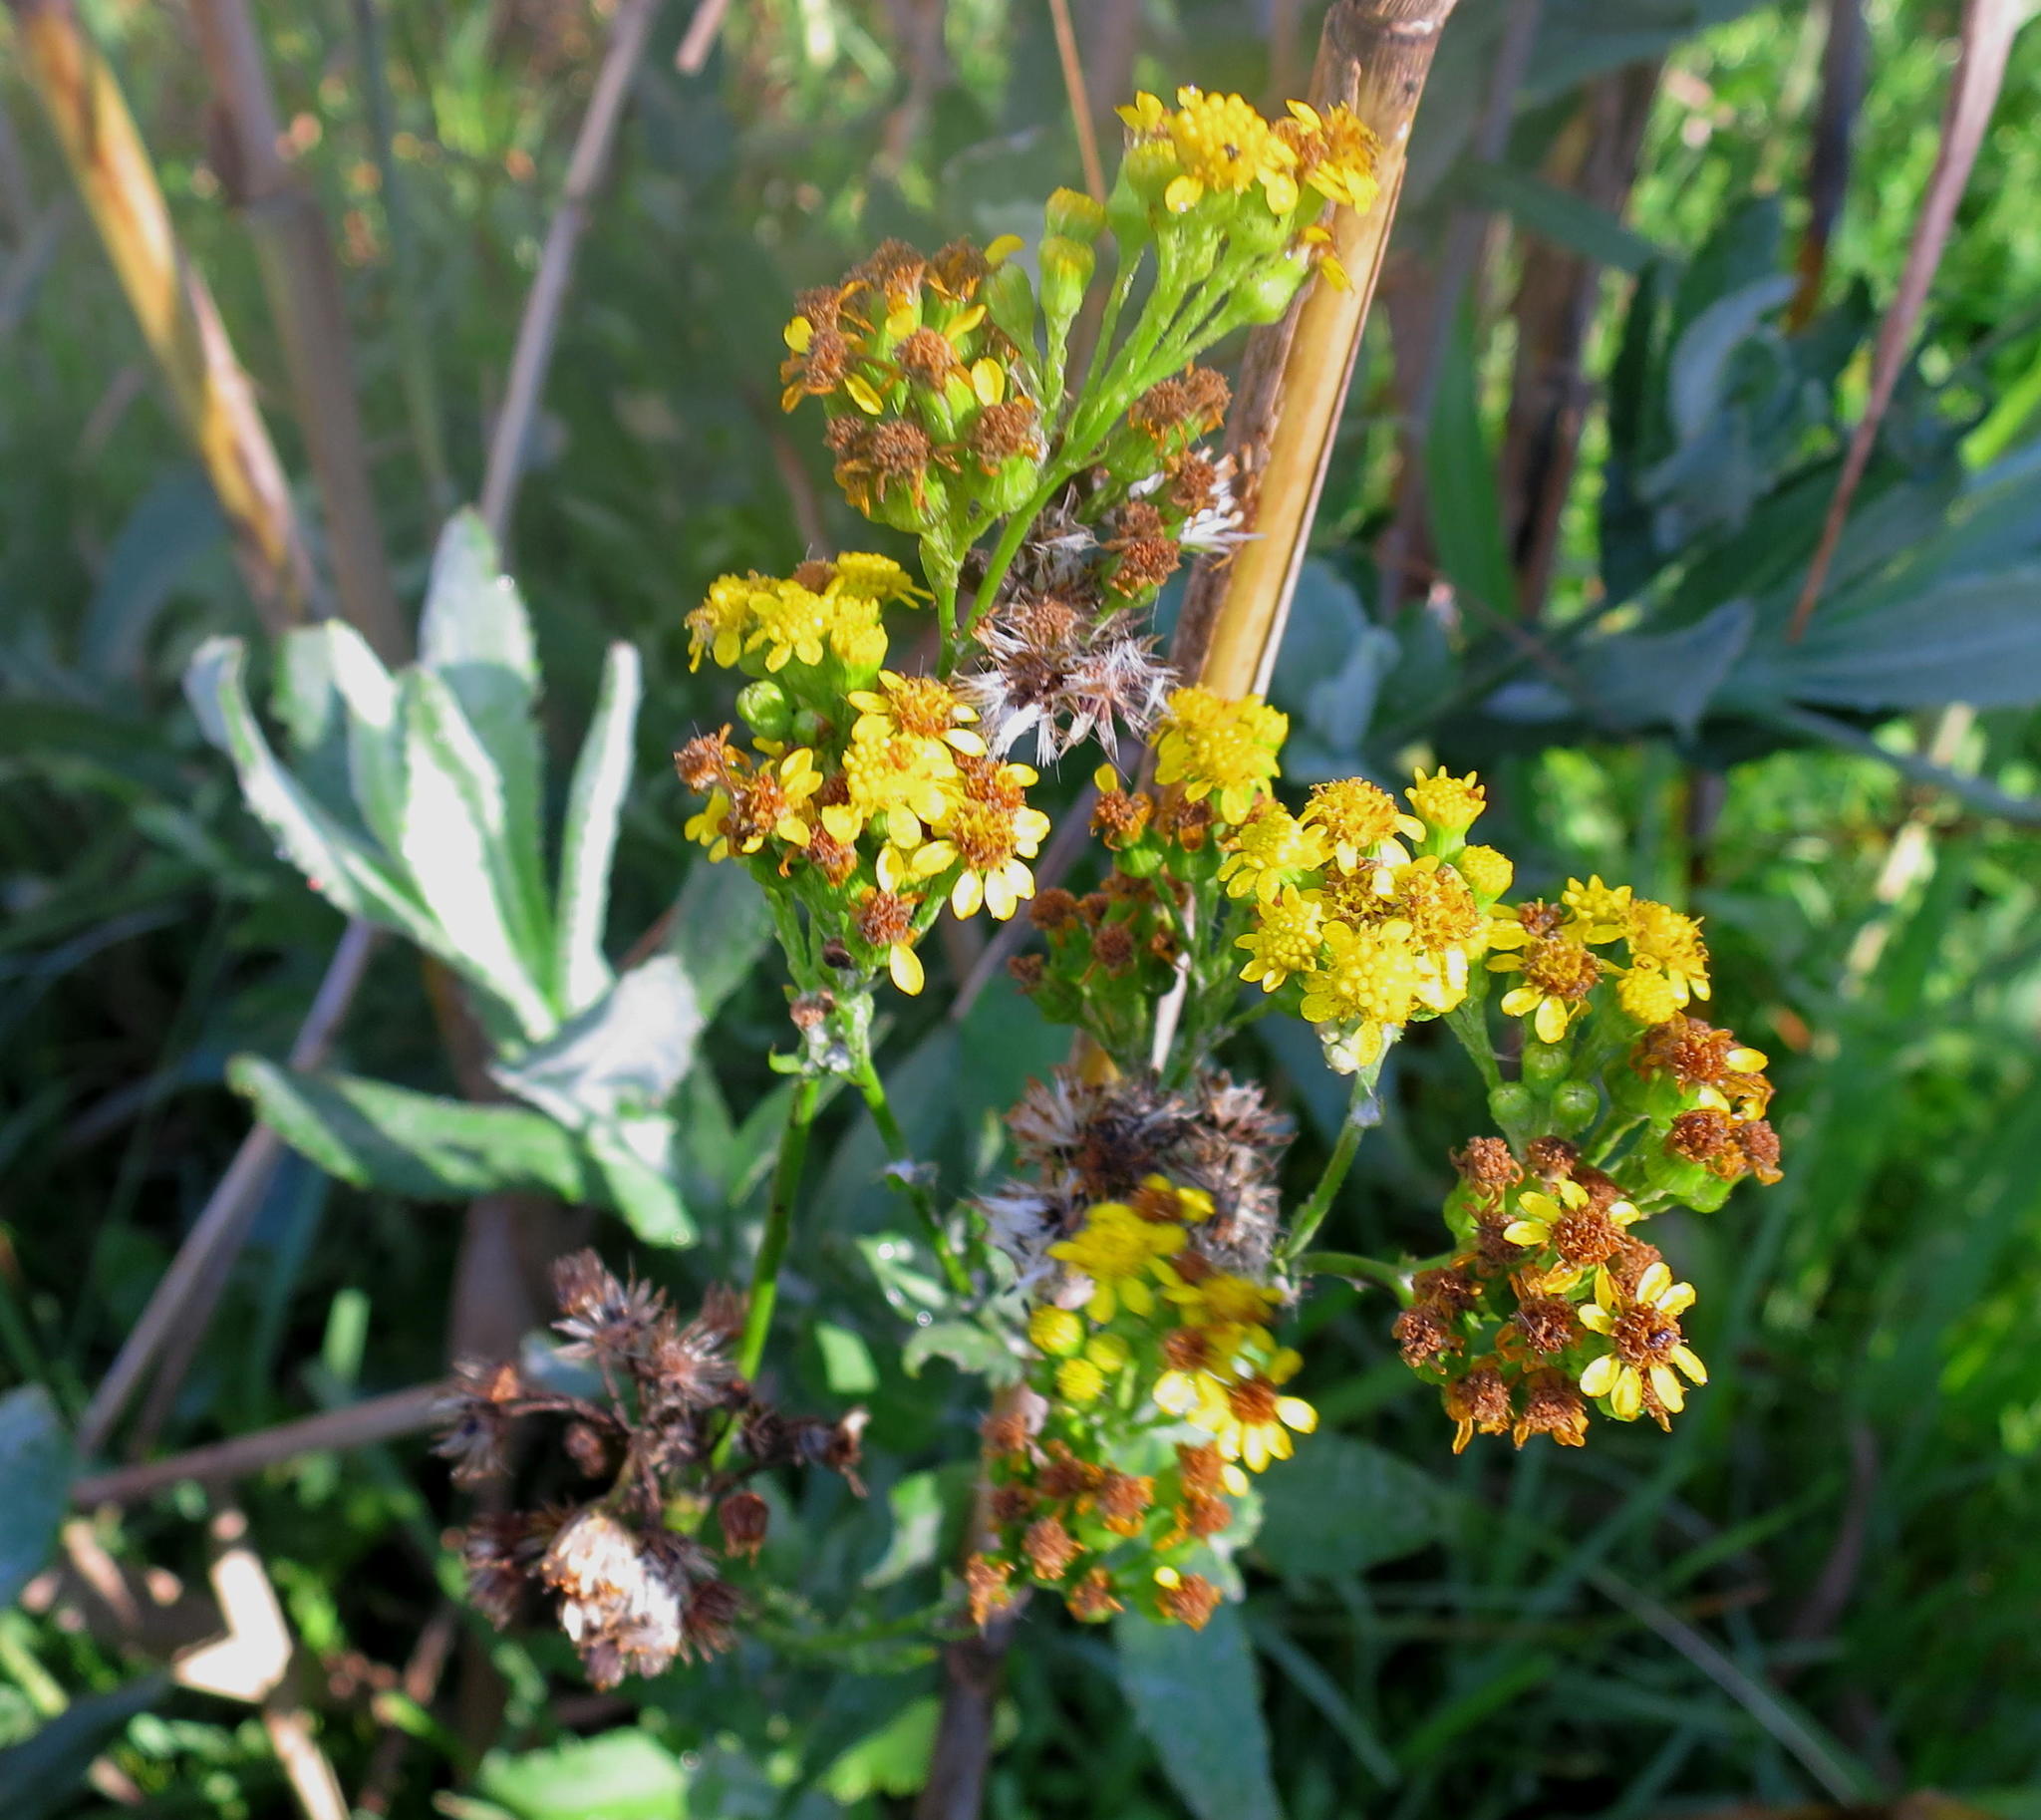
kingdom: Plantae
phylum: Tracheophyta
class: Magnoliopsida
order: Asterales
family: Asteraceae
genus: Senecio
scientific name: Senecio lanceus
